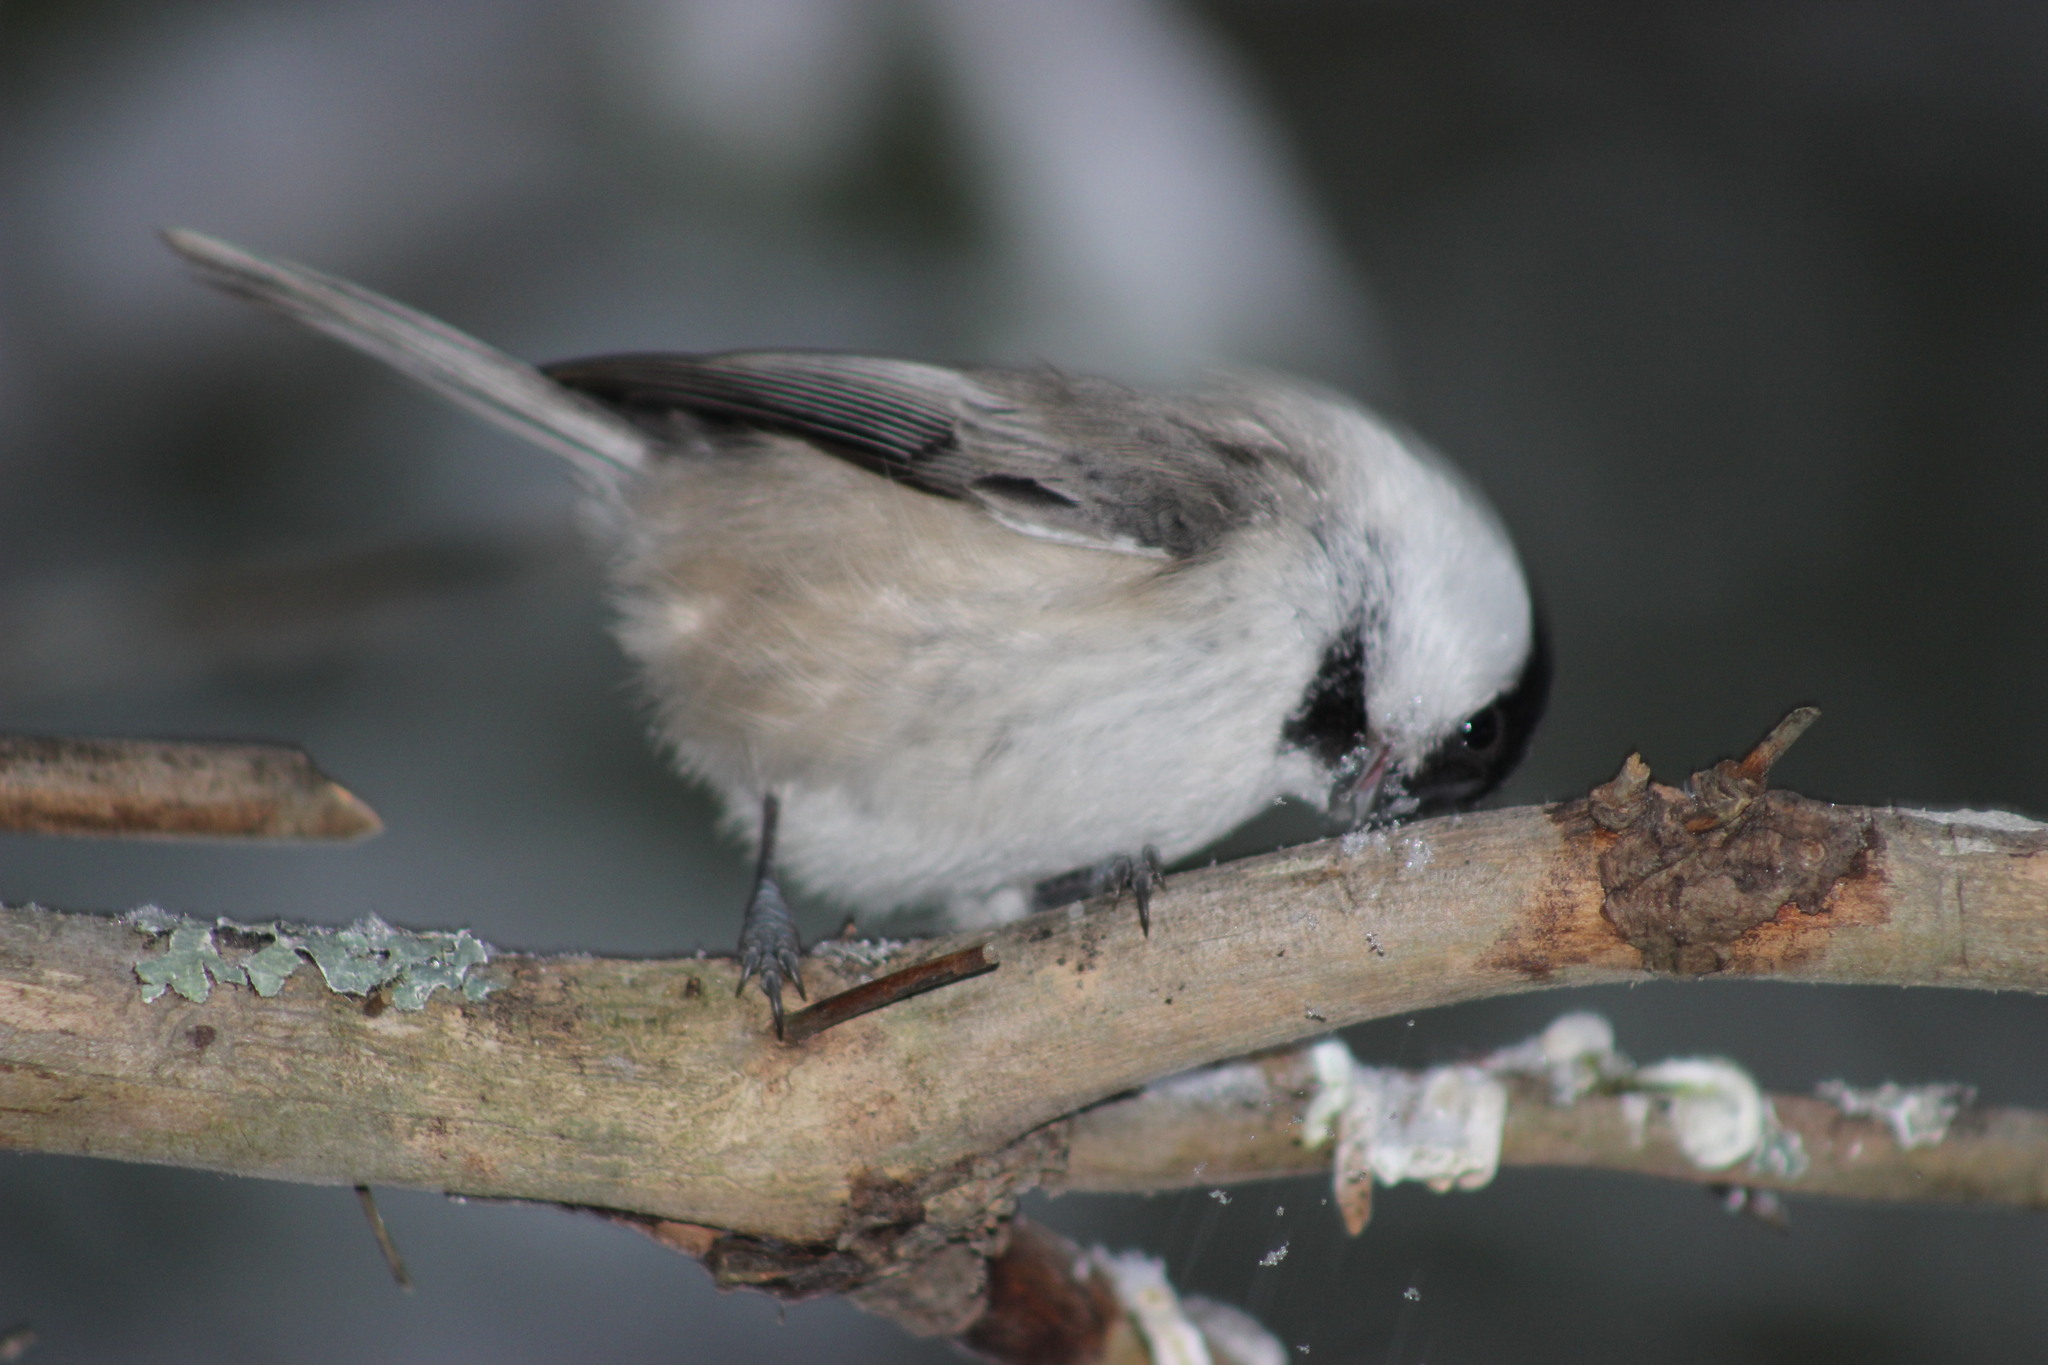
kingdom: Animalia
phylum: Chordata
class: Aves
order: Passeriformes
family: Paridae
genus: Poecile
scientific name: Poecile montanus
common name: Willow tit
